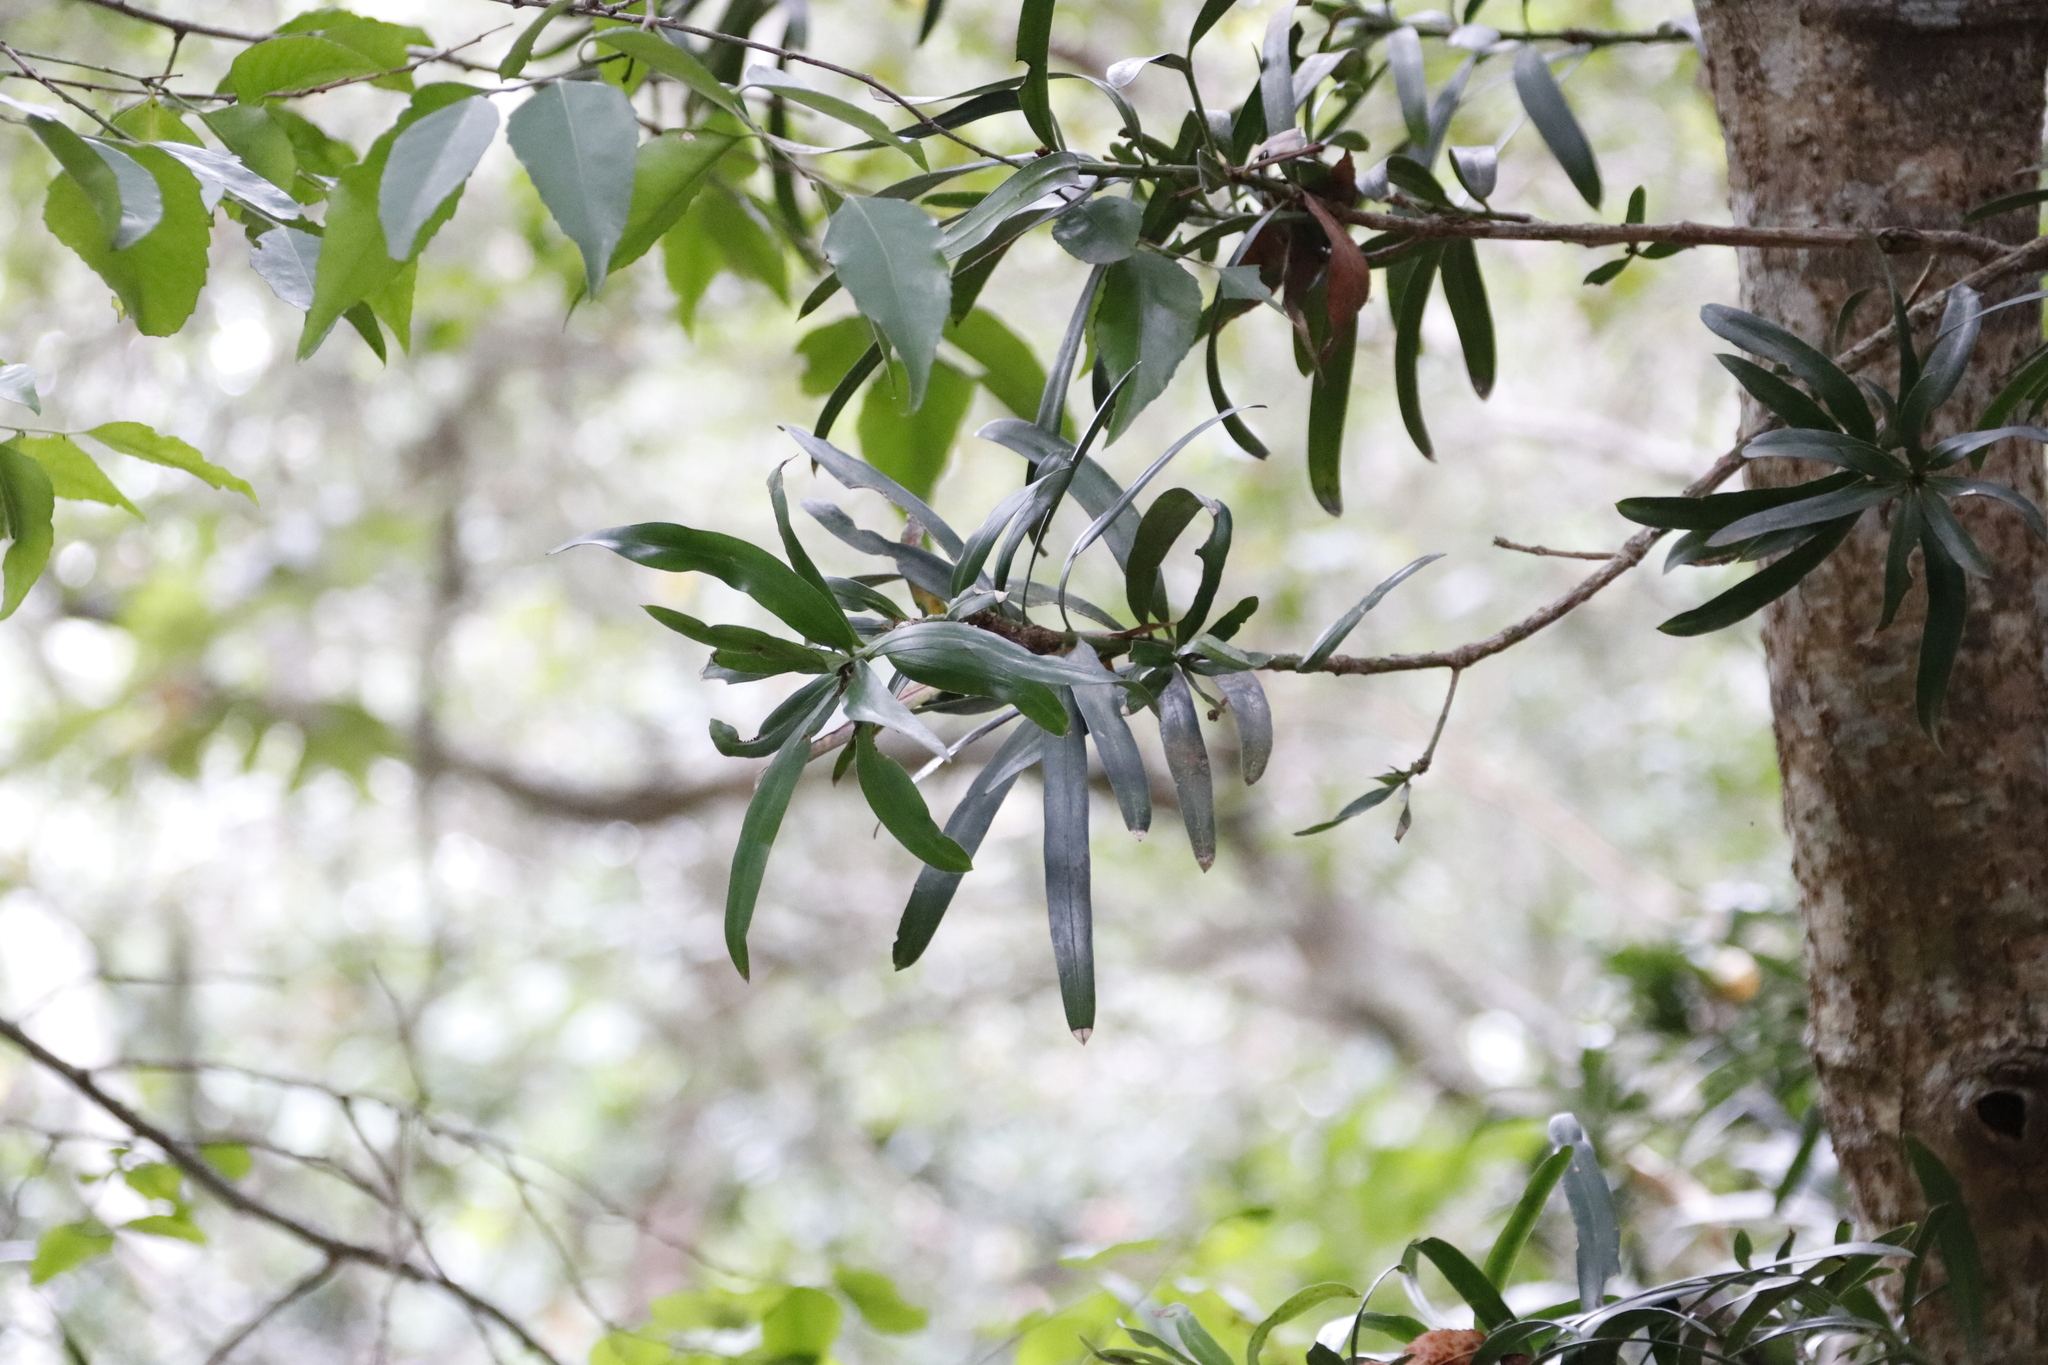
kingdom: Plantae
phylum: Tracheophyta
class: Pinopsida
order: Pinales
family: Podocarpaceae
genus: Podocarpus
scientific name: Podocarpus latifolius
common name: True yellowwood
